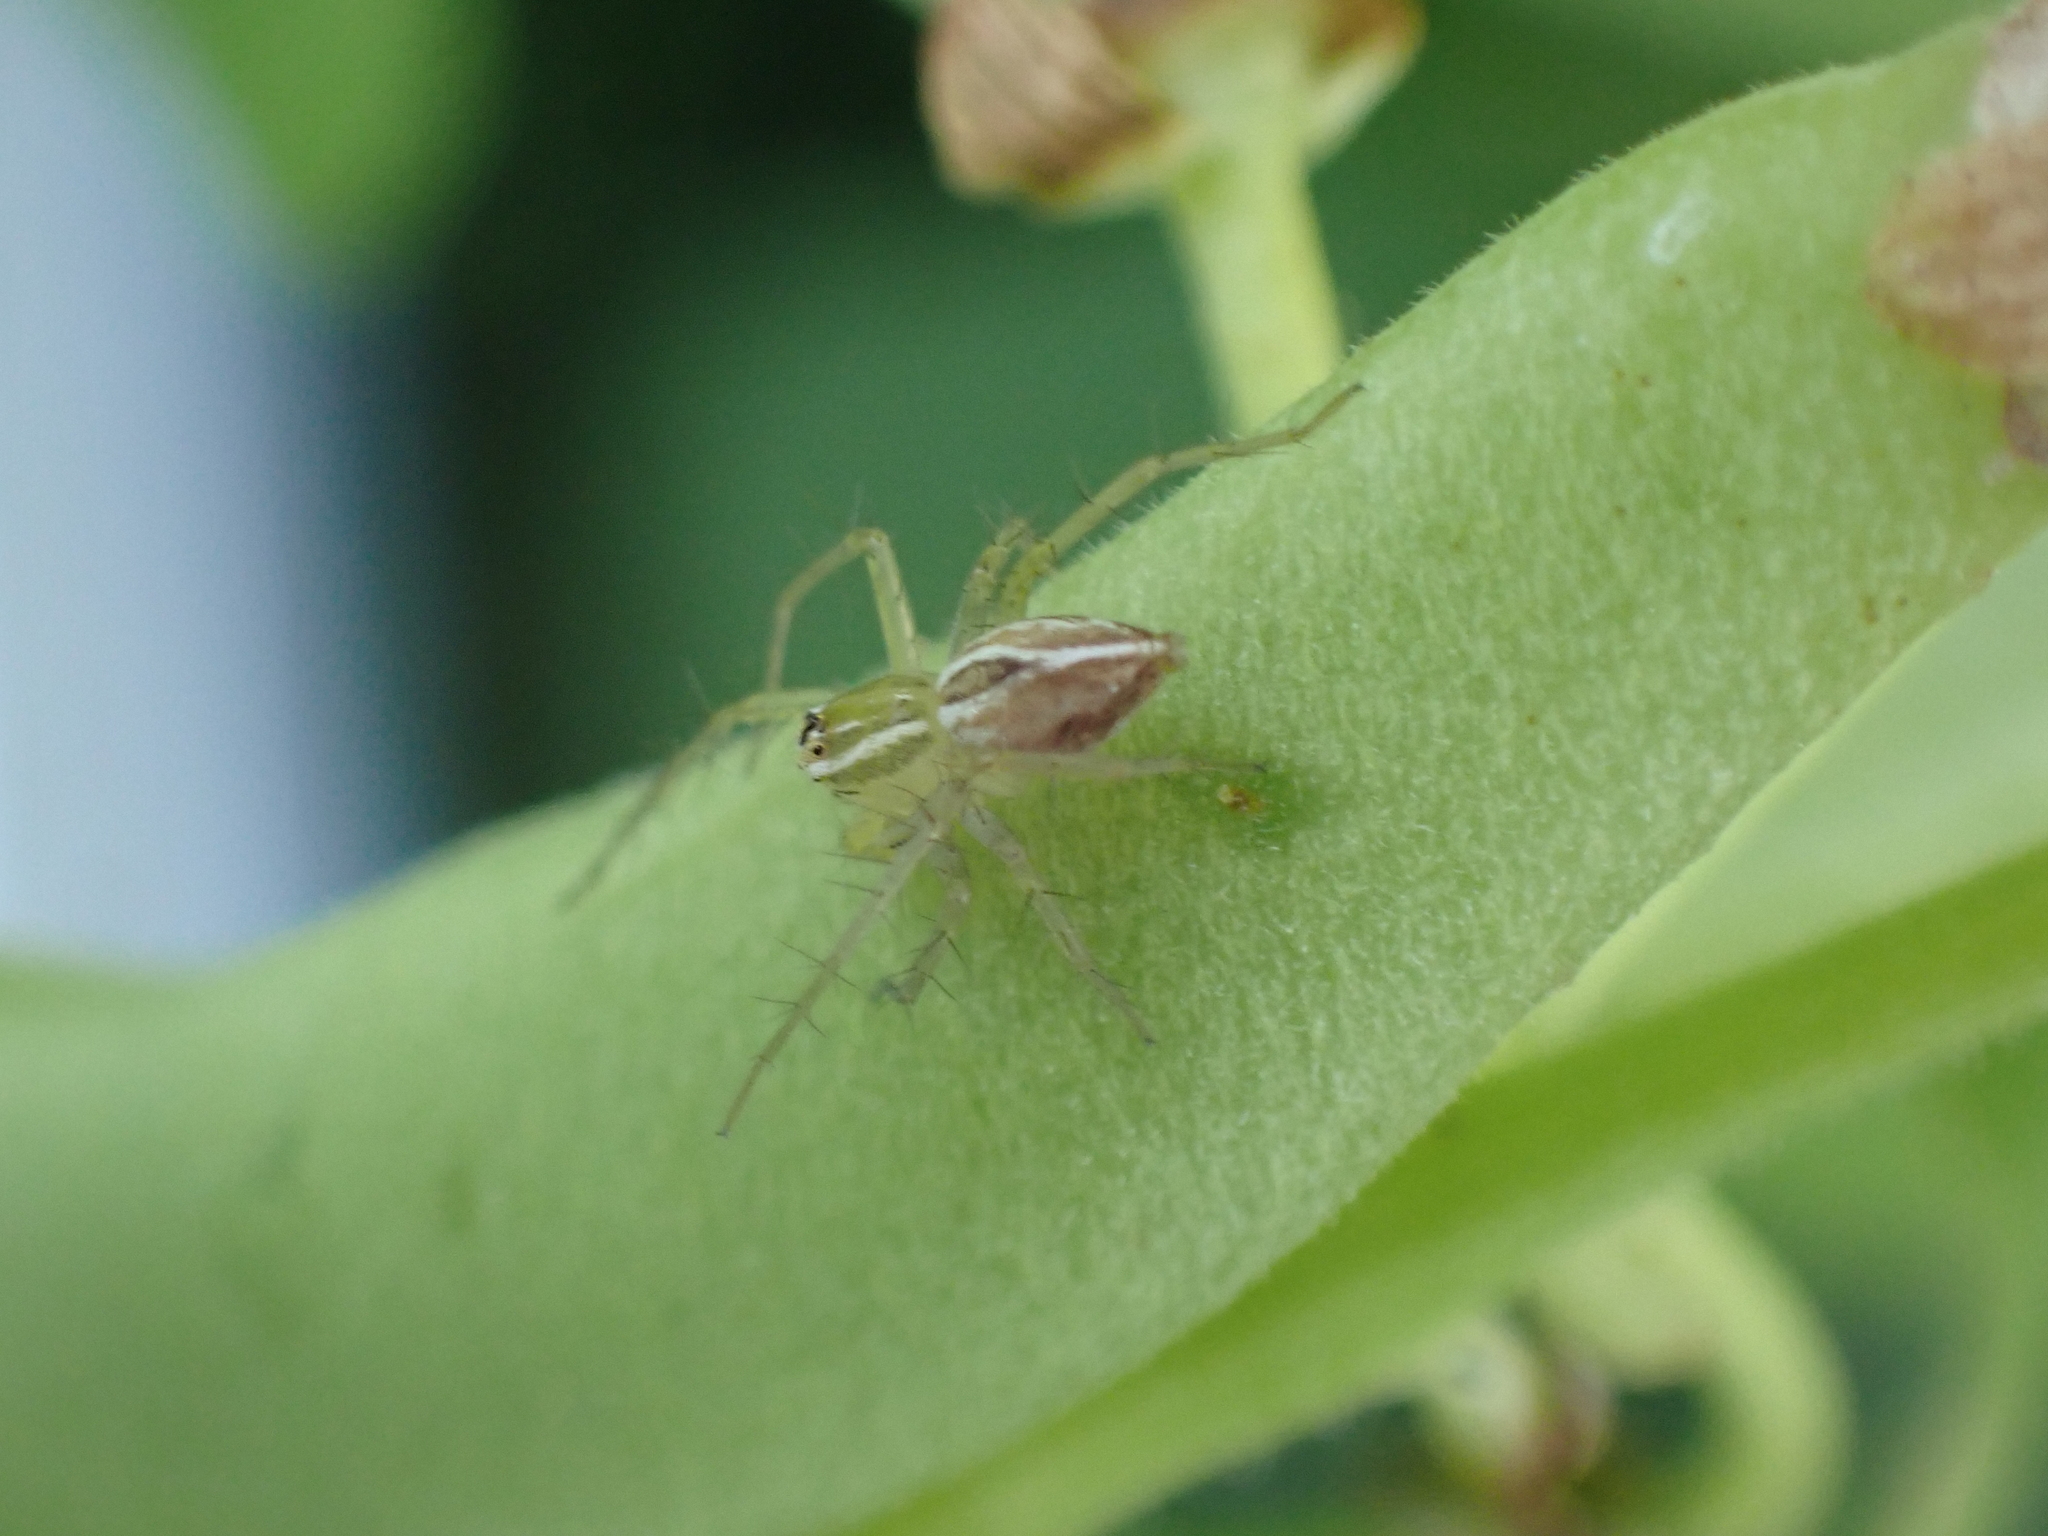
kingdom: Animalia
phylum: Arthropoda
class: Arachnida
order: Araneae
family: Oxyopidae
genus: Oxyopes
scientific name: Oxyopes salticus
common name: Lynx spiders
